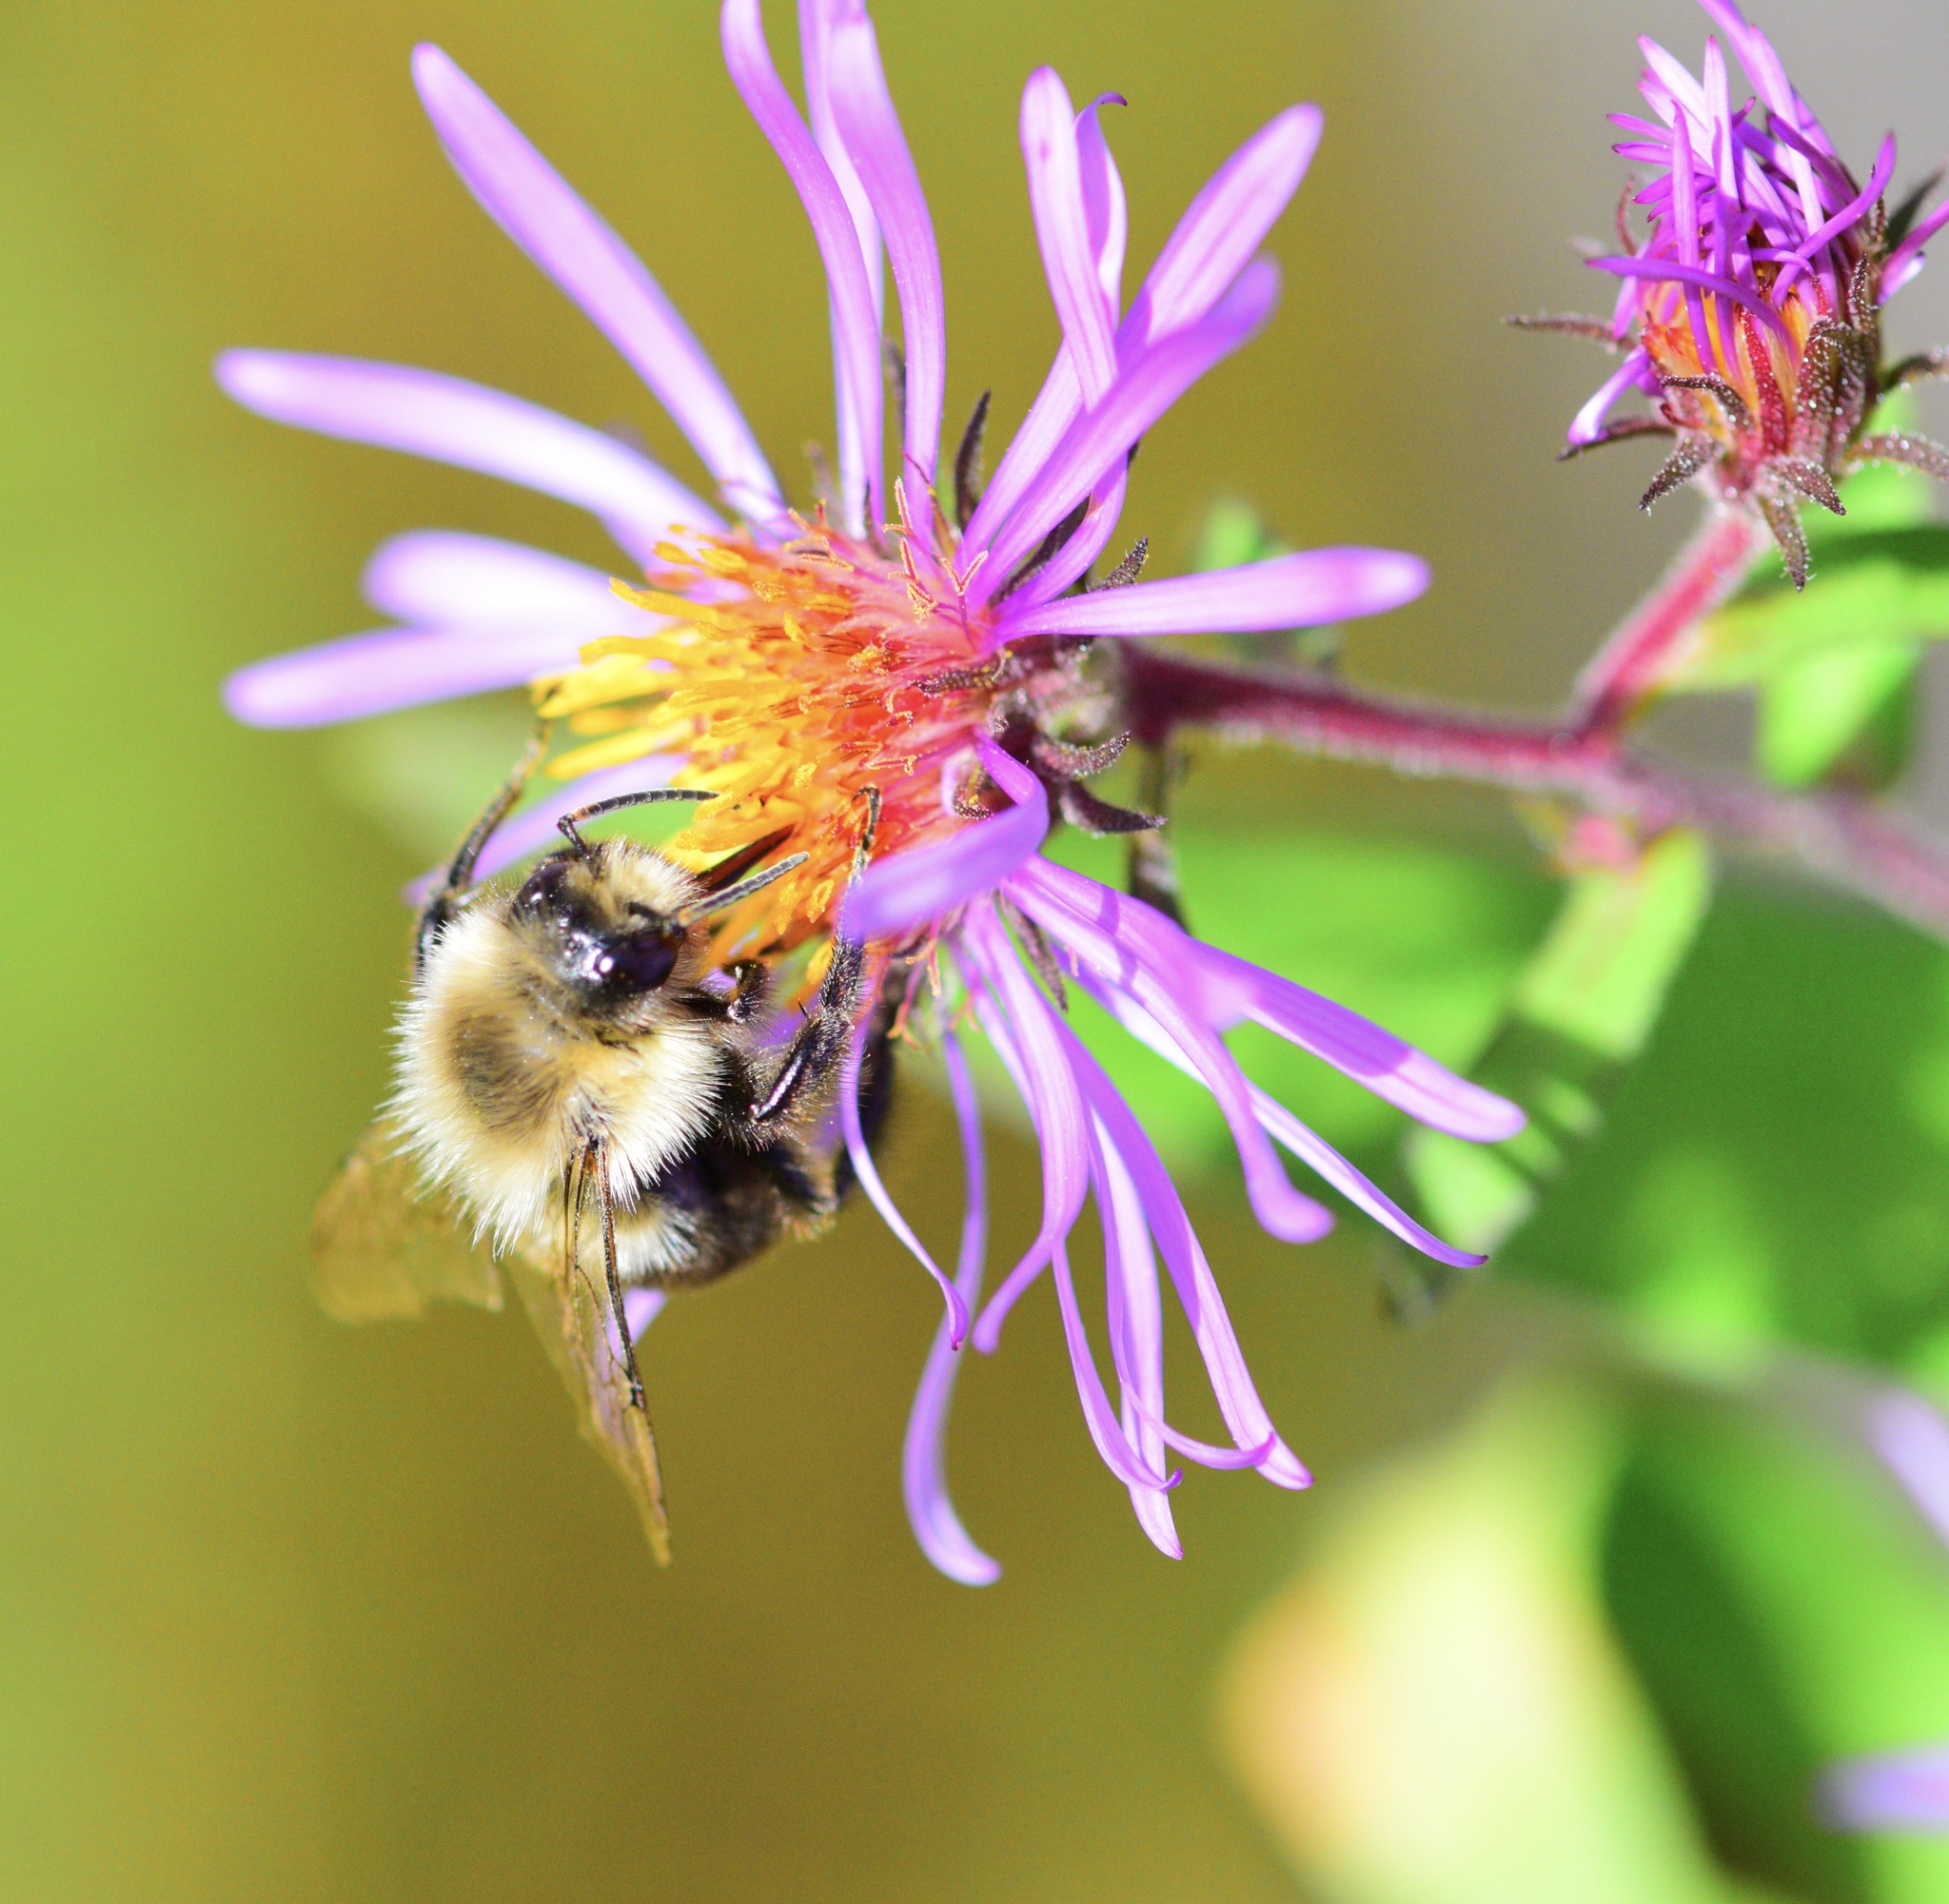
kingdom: Animalia
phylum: Arthropoda
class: Insecta
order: Hymenoptera
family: Apidae
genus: Bombus
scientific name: Bombus impatiens
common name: Common eastern bumble bee
